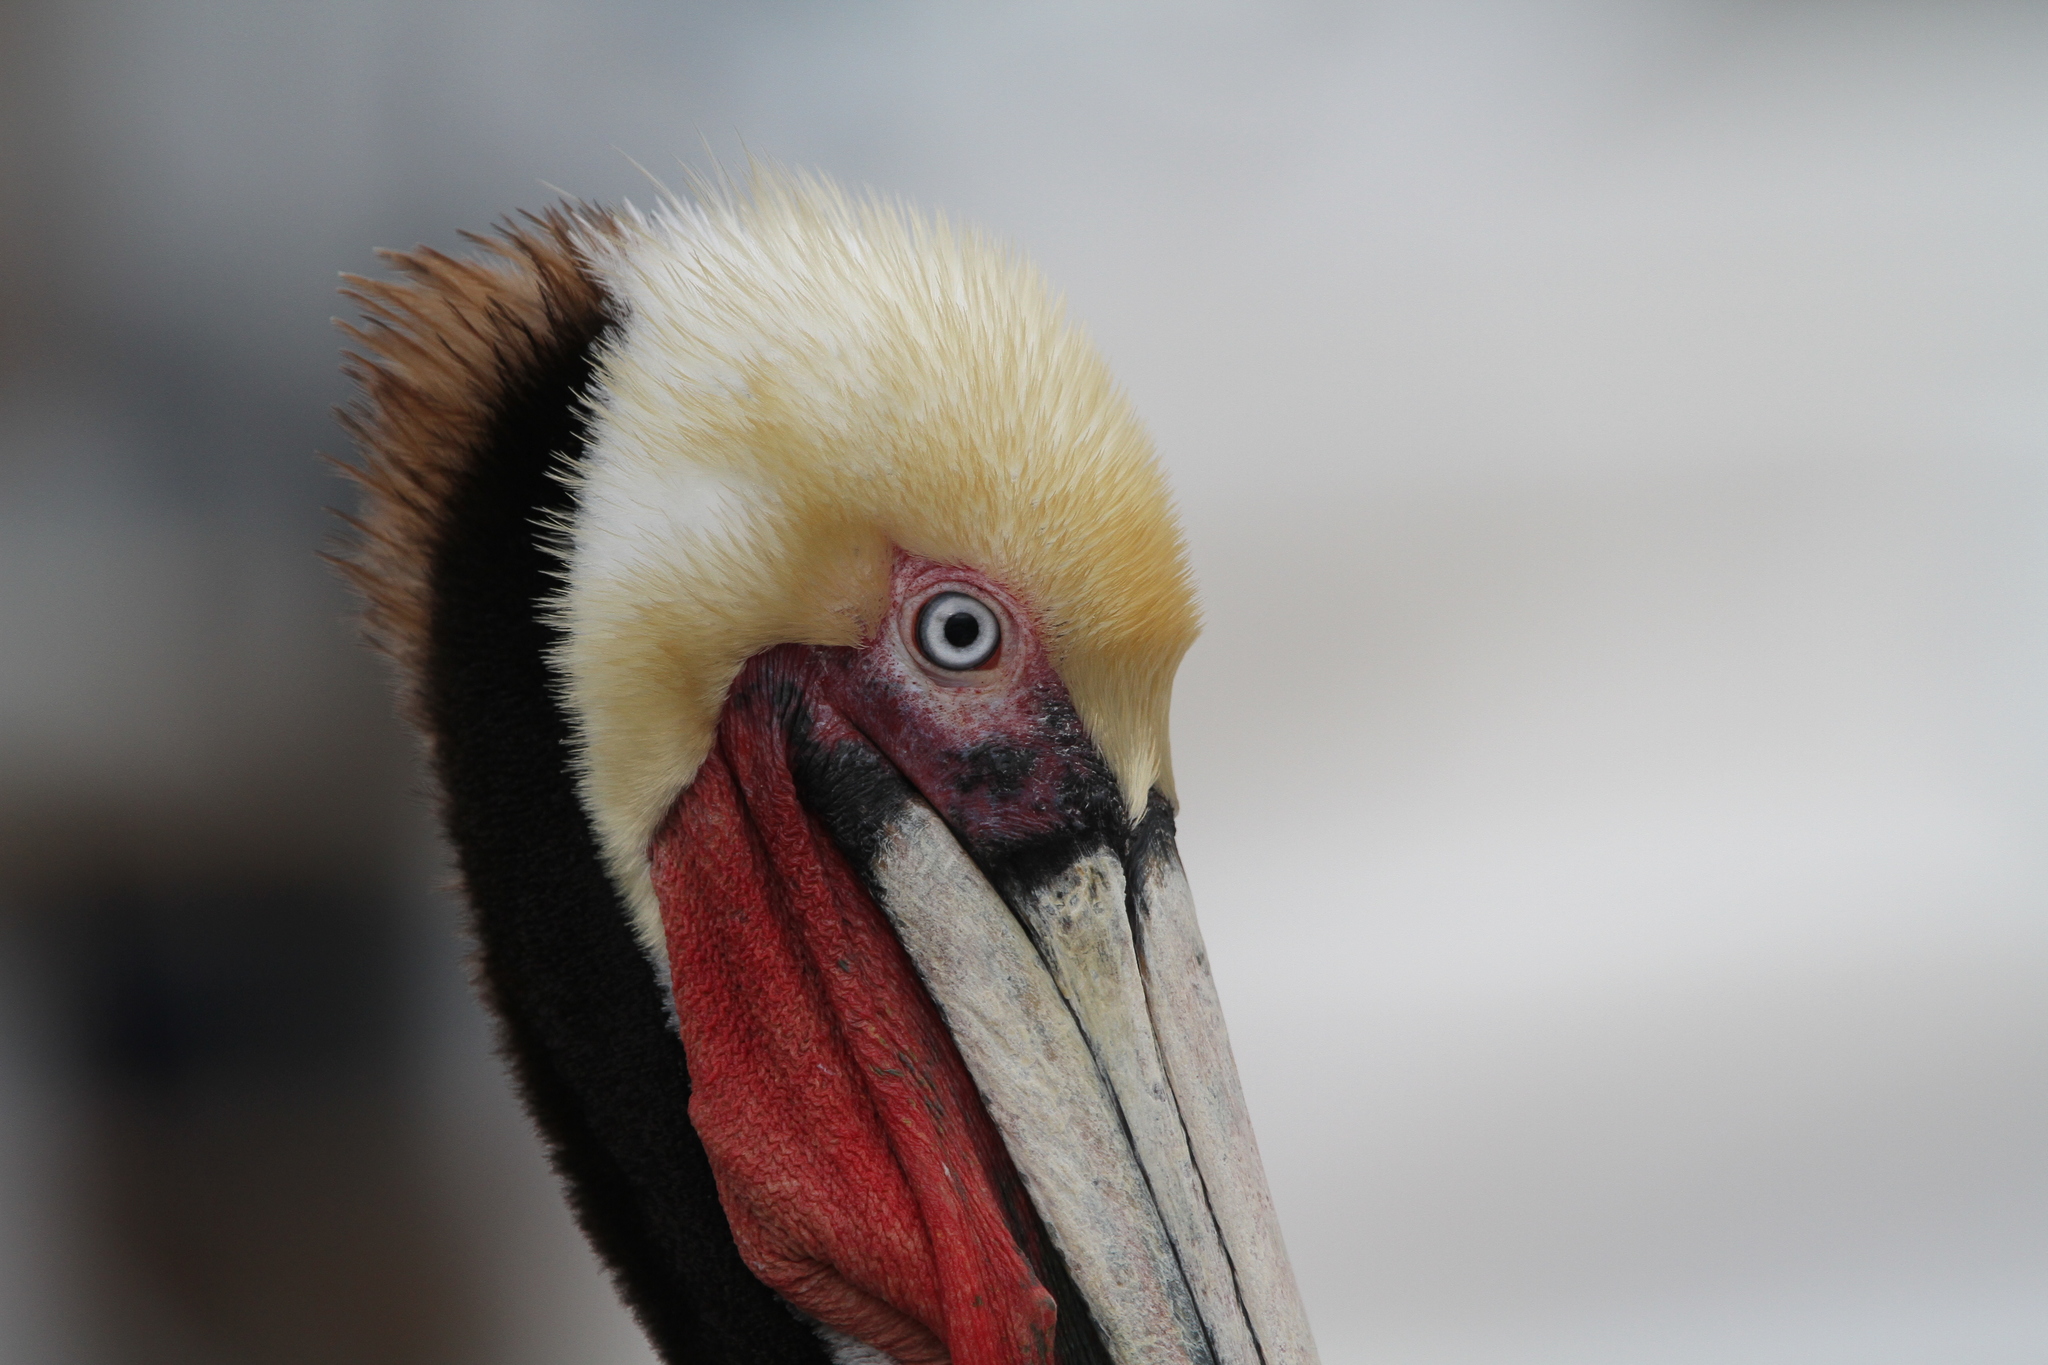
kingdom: Animalia
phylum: Chordata
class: Aves
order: Pelecaniformes
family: Pelecanidae
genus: Pelecanus
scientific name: Pelecanus occidentalis
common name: Brown pelican
